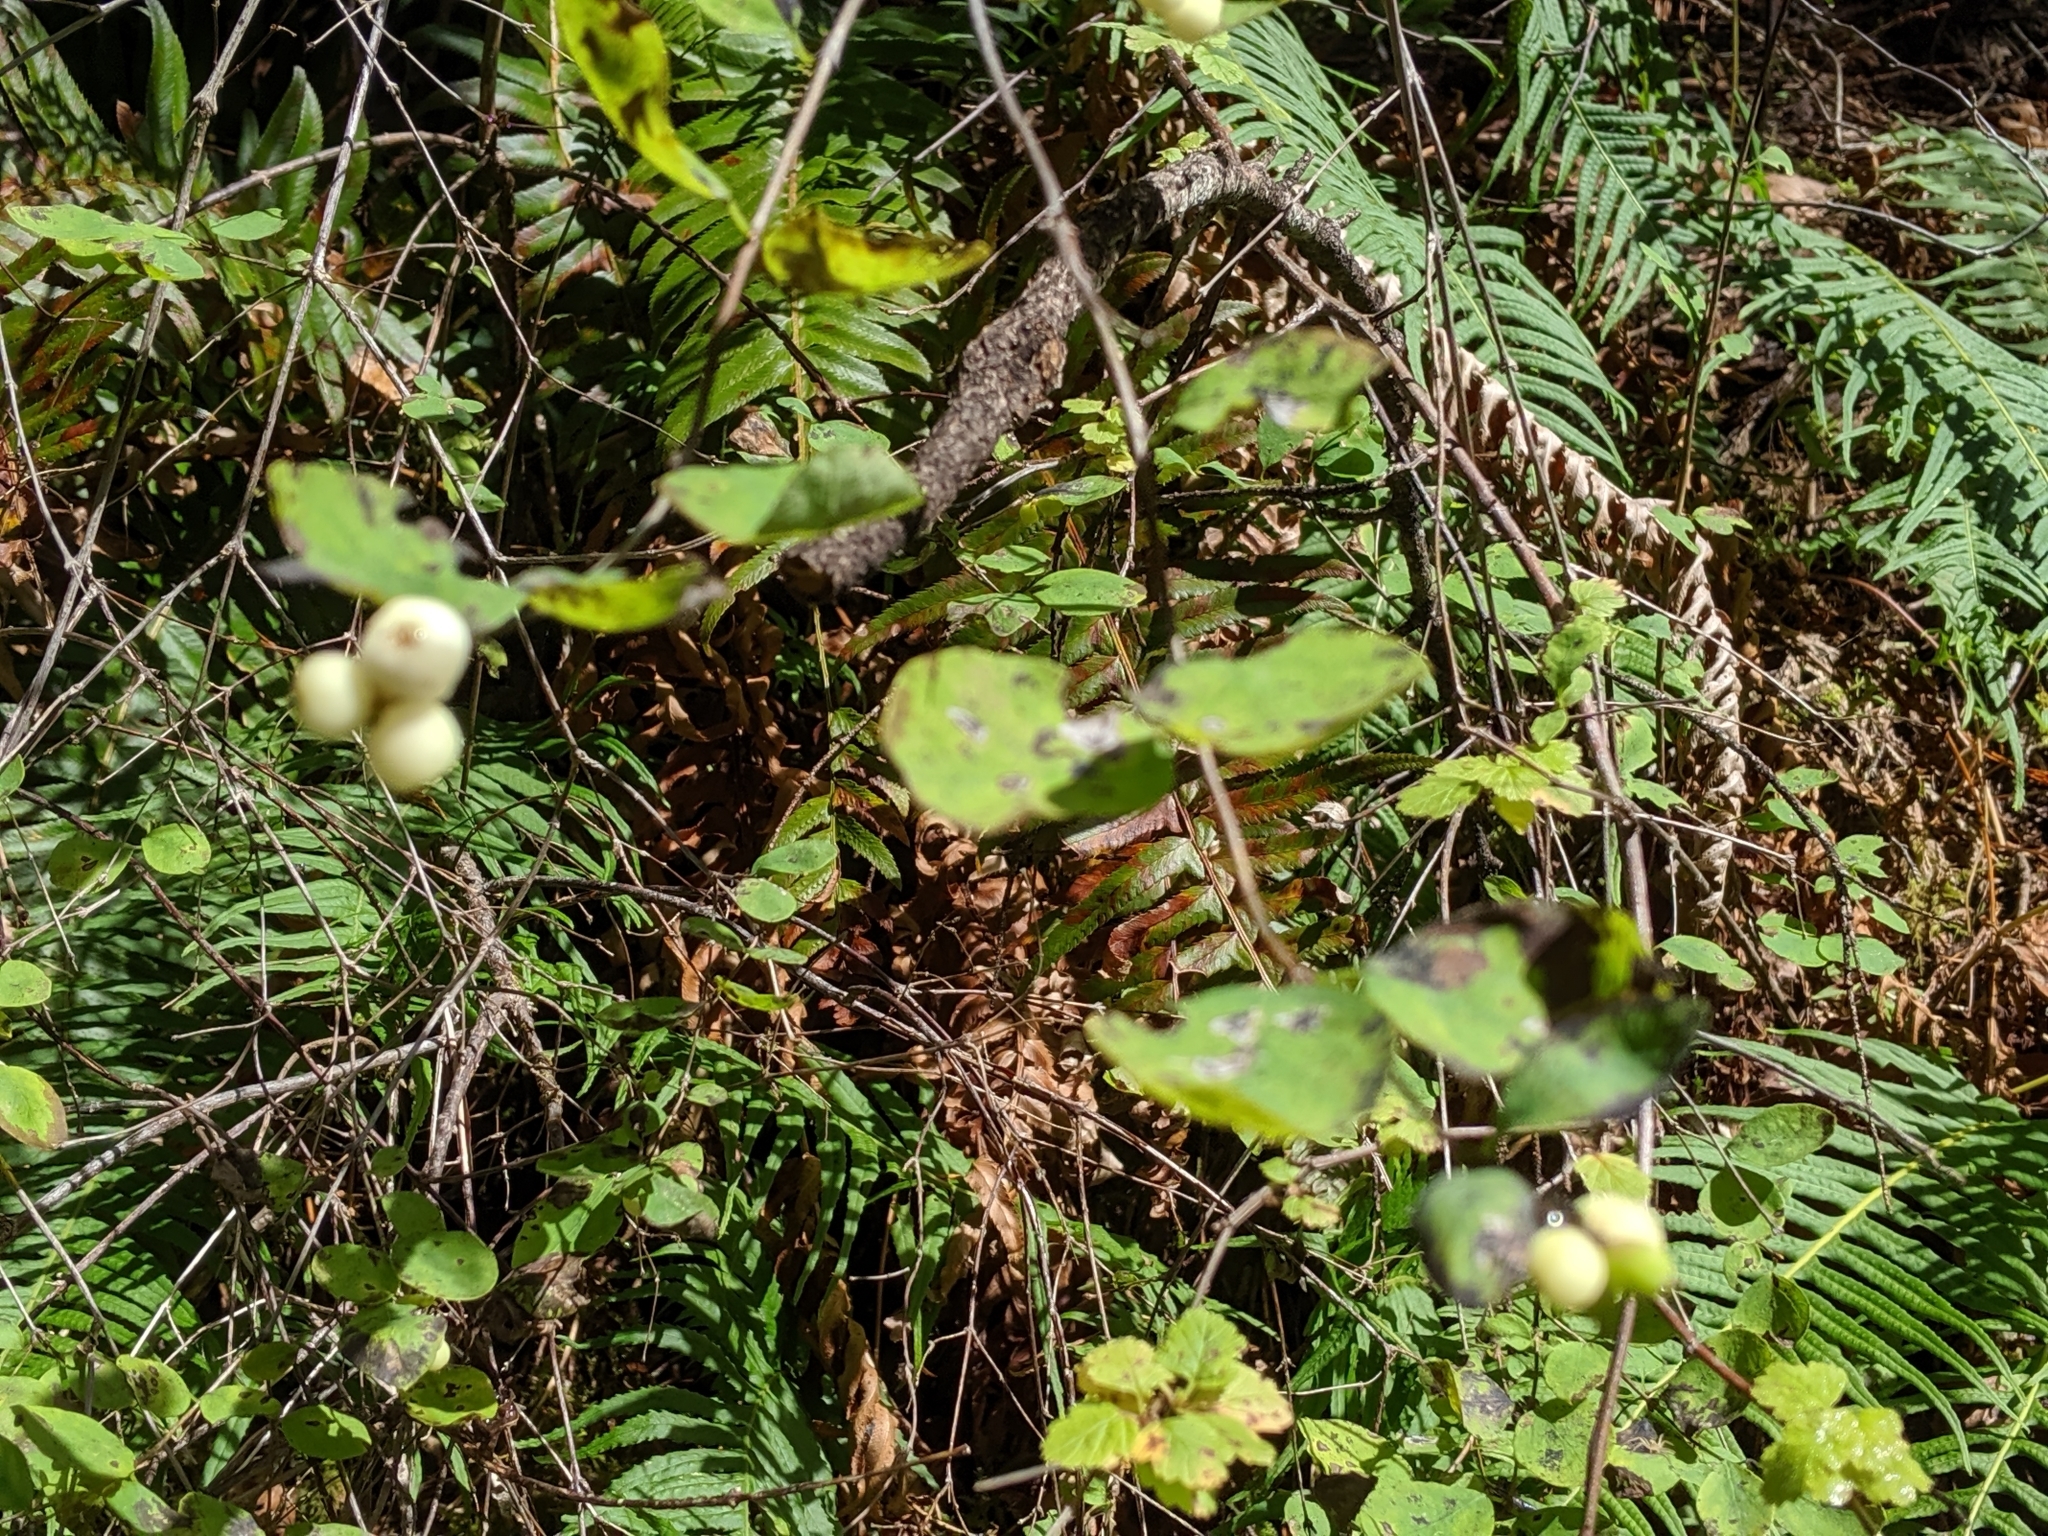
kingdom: Plantae
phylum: Tracheophyta
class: Magnoliopsida
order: Dipsacales
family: Caprifoliaceae
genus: Symphoricarpos
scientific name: Symphoricarpos albus
